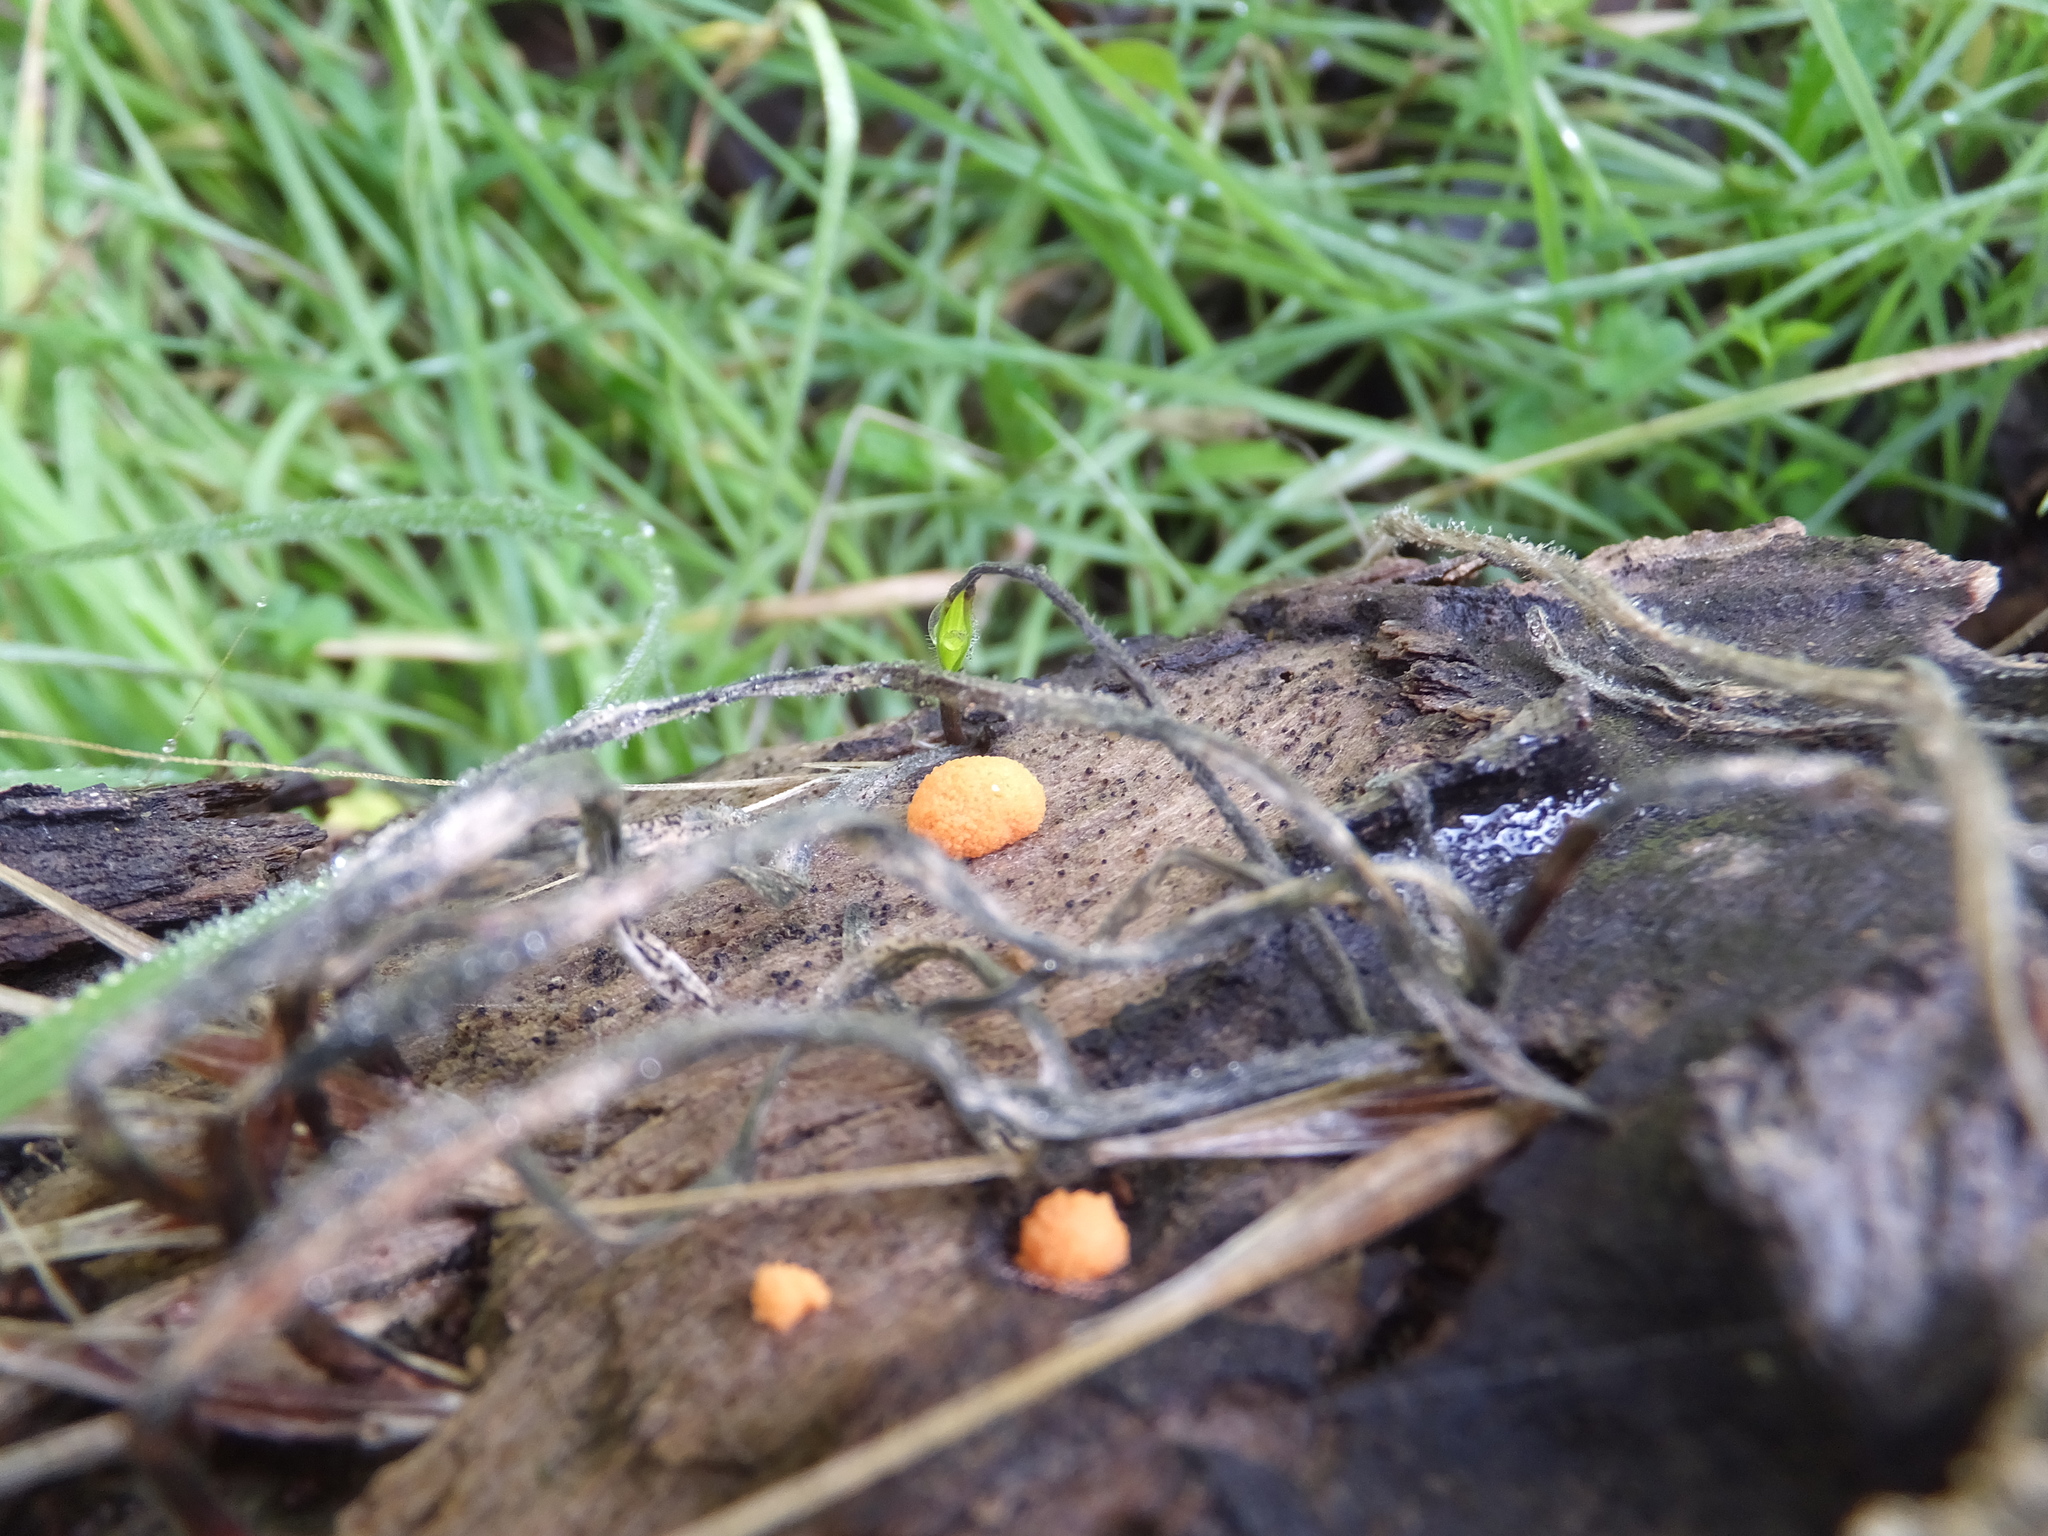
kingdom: Protozoa
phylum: Mycetozoa
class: Myxomycetes
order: Cribrariales
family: Tubiferaceae
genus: Lycogala
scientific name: Lycogala epidendrum
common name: Wolf's milk
